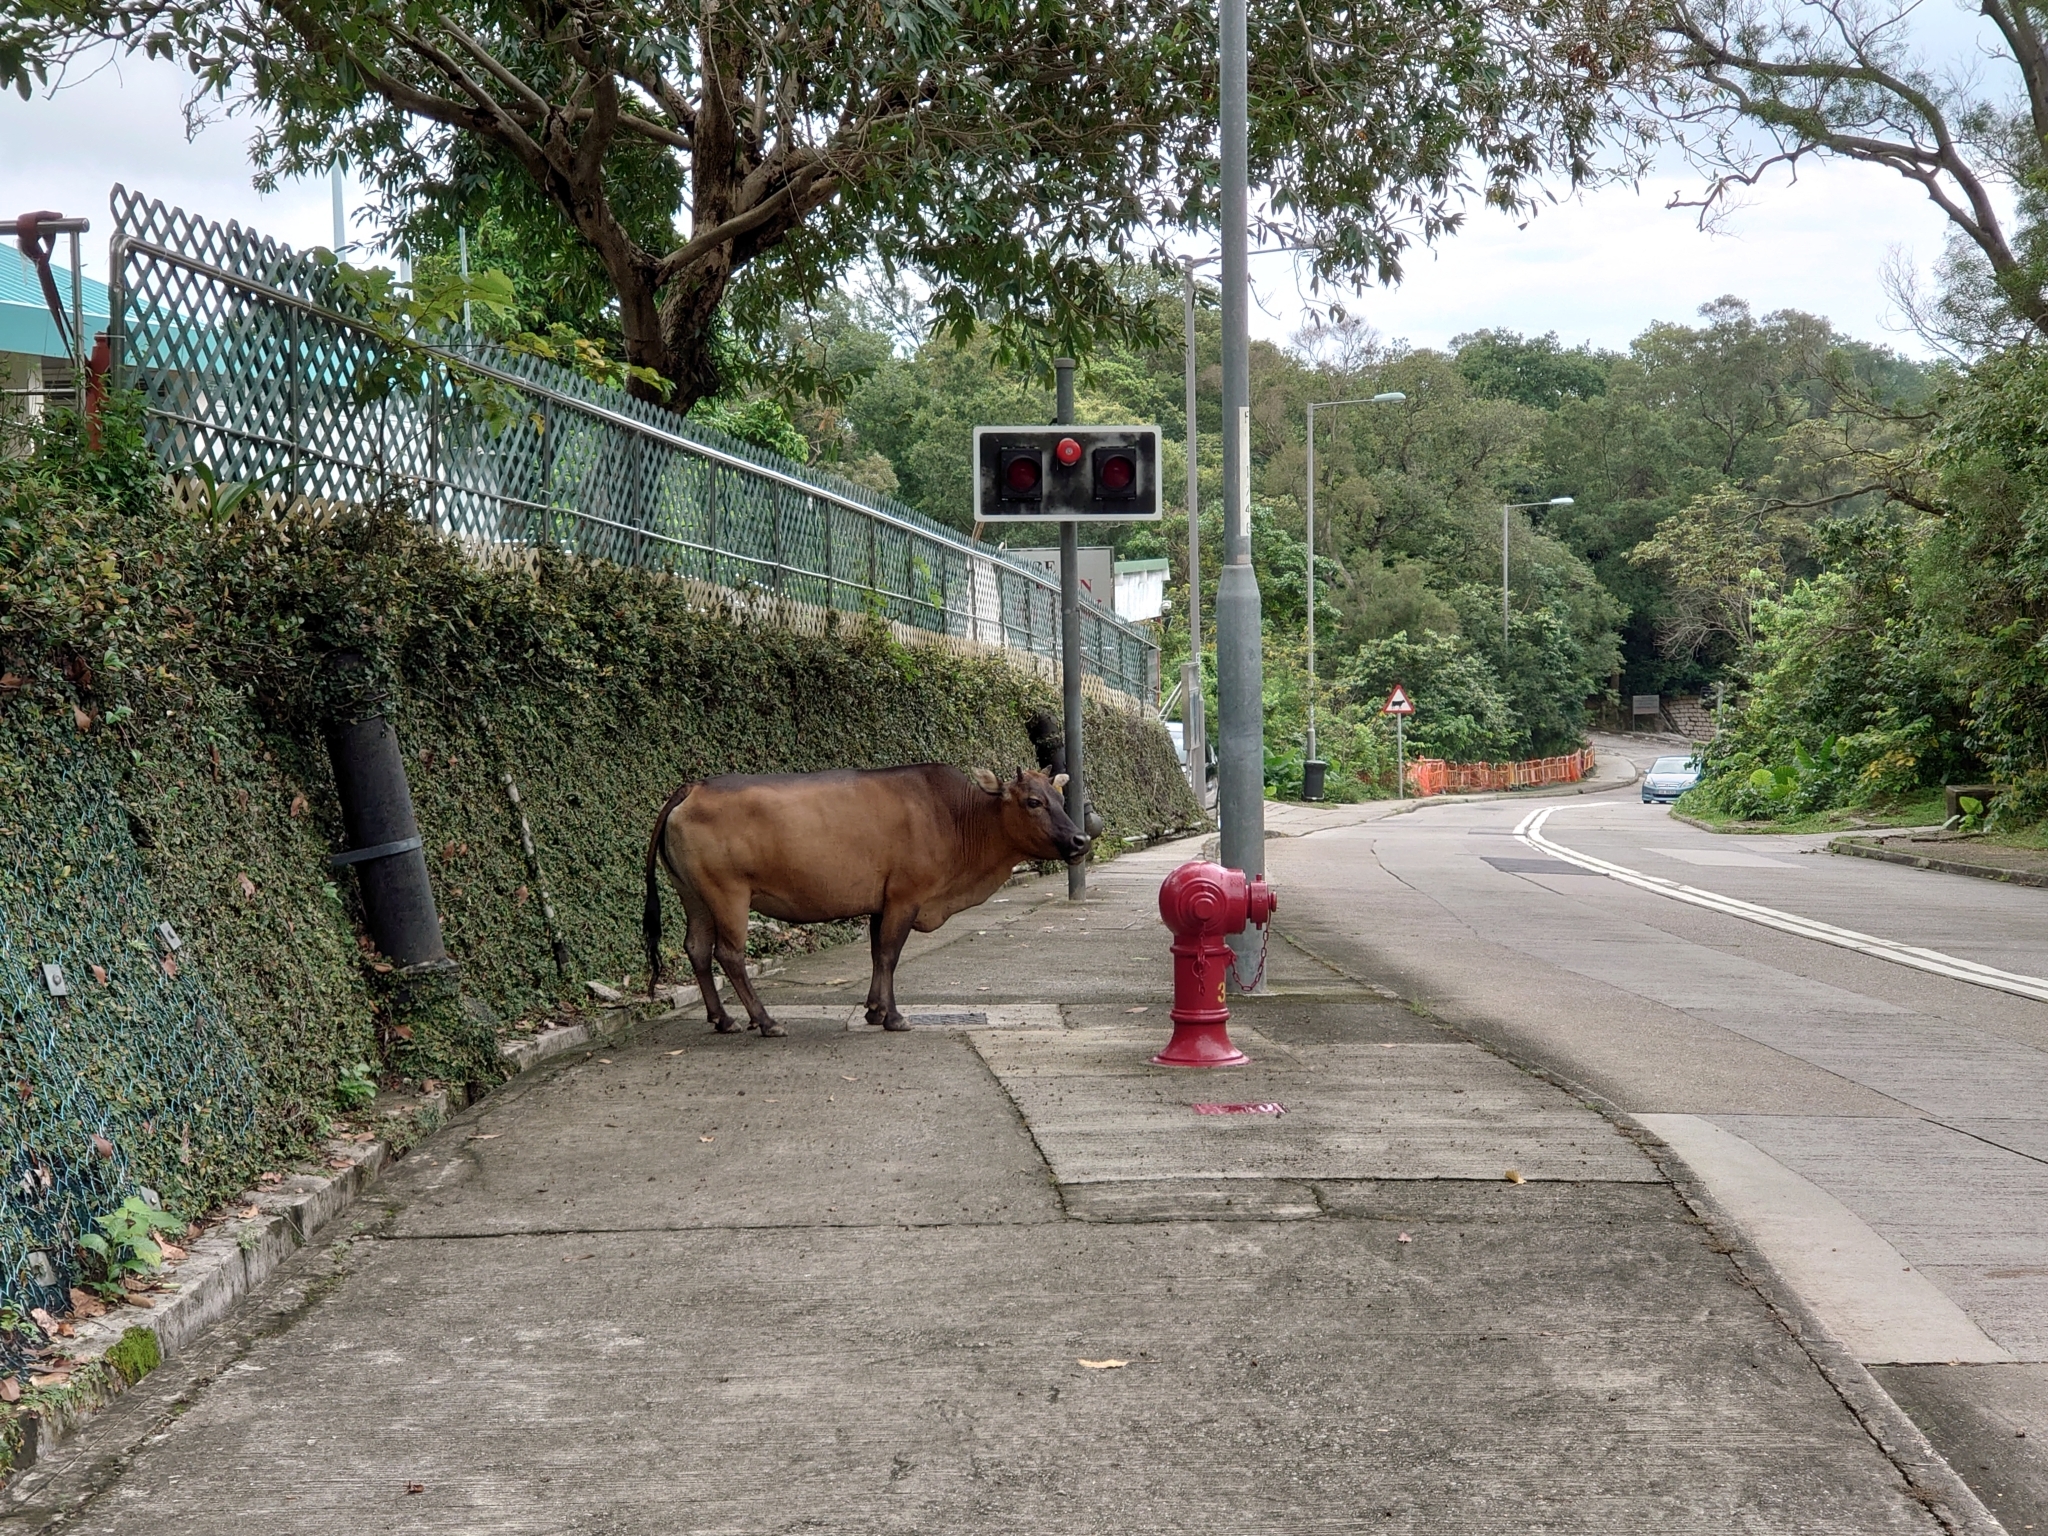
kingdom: Animalia
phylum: Chordata
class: Mammalia
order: Artiodactyla
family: Bovidae
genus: Bos
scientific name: Bos taurus
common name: Domesticated cattle
